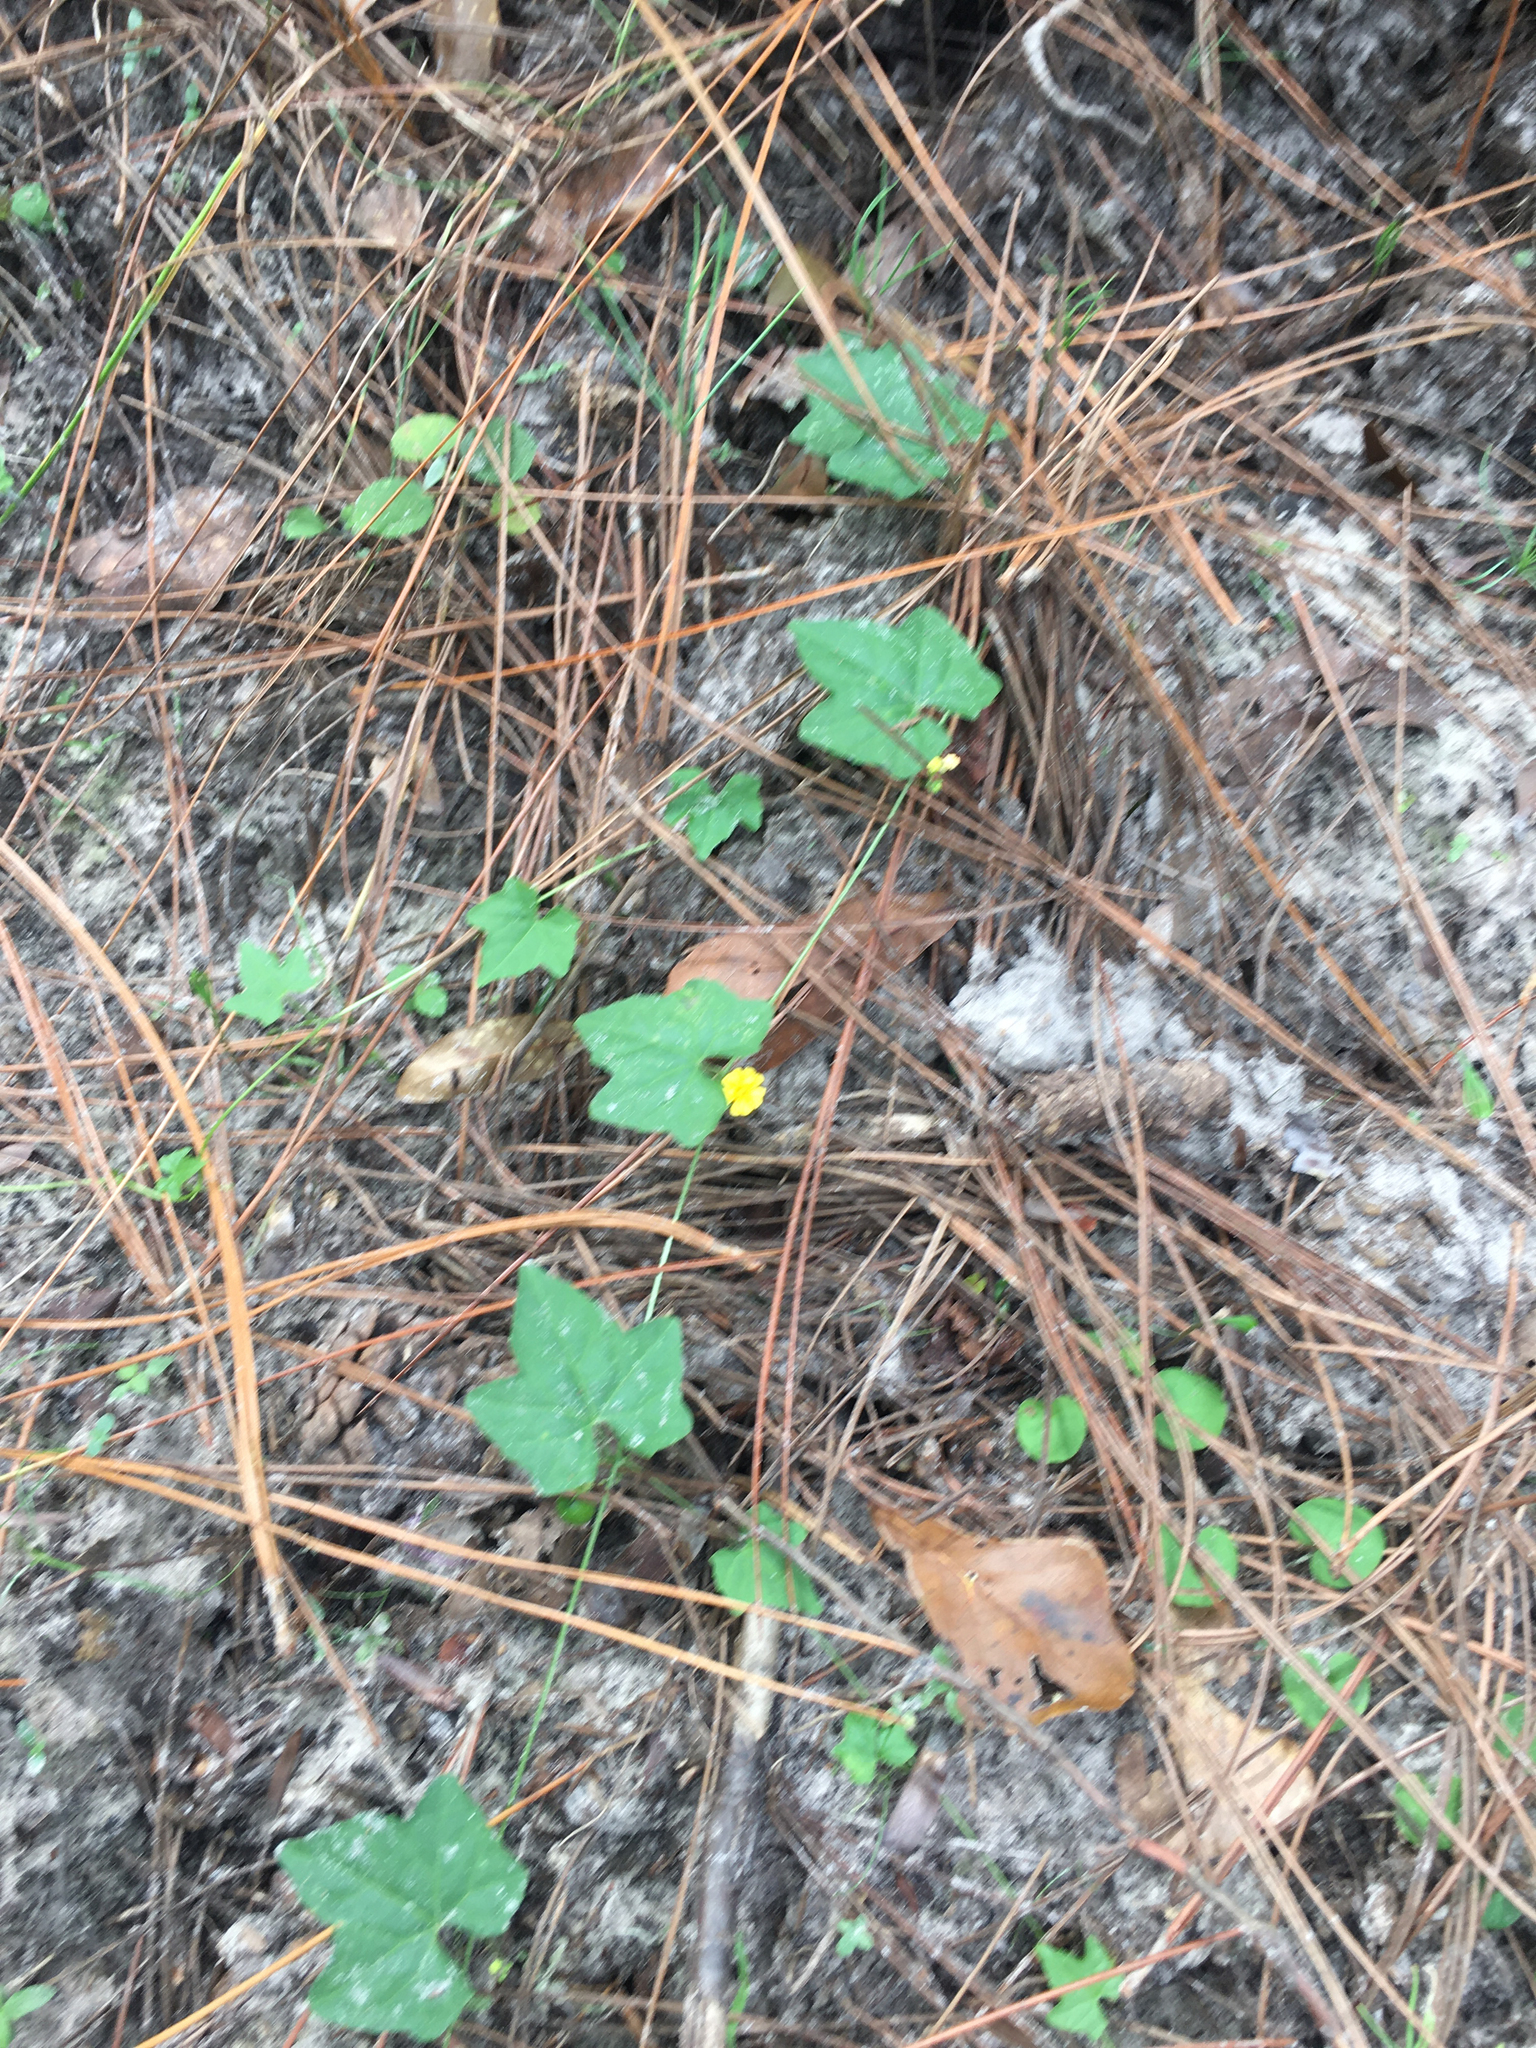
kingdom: Plantae
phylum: Tracheophyta
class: Magnoliopsida
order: Cucurbitales
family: Cucurbitaceae
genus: Melothria
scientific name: Melothria pendula
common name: Creeping-cucumber
